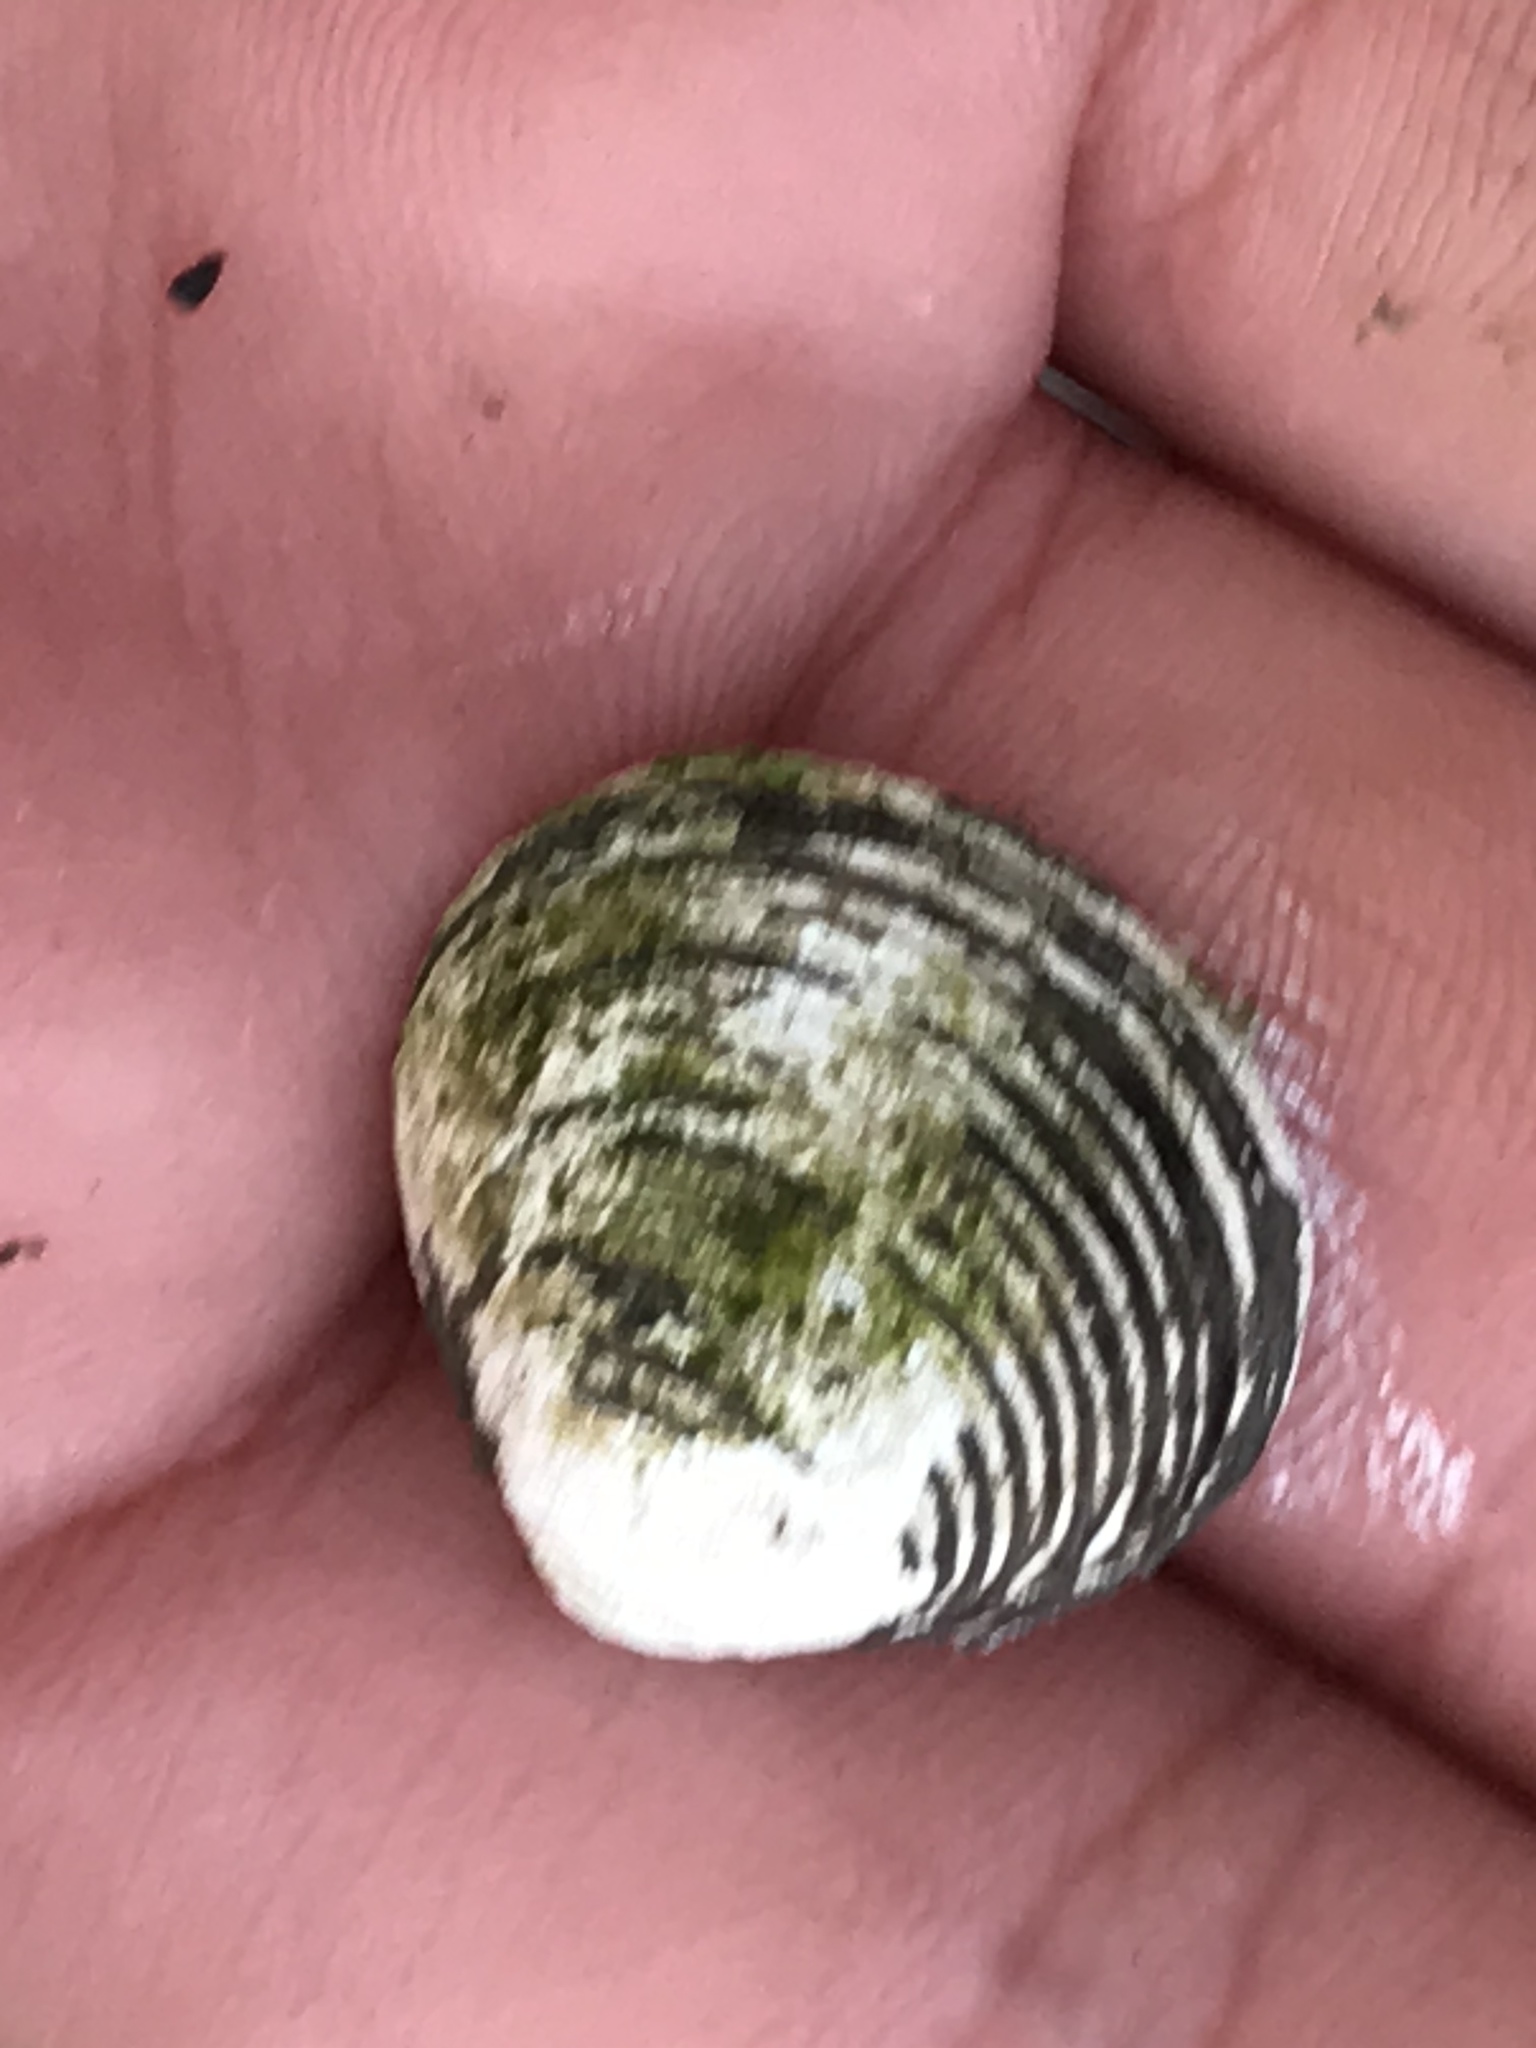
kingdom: Animalia
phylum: Mollusca
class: Bivalvia
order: Venerida
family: Cyrenidae
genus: Corbicula
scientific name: Corbicula fluminea
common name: Asian clam
